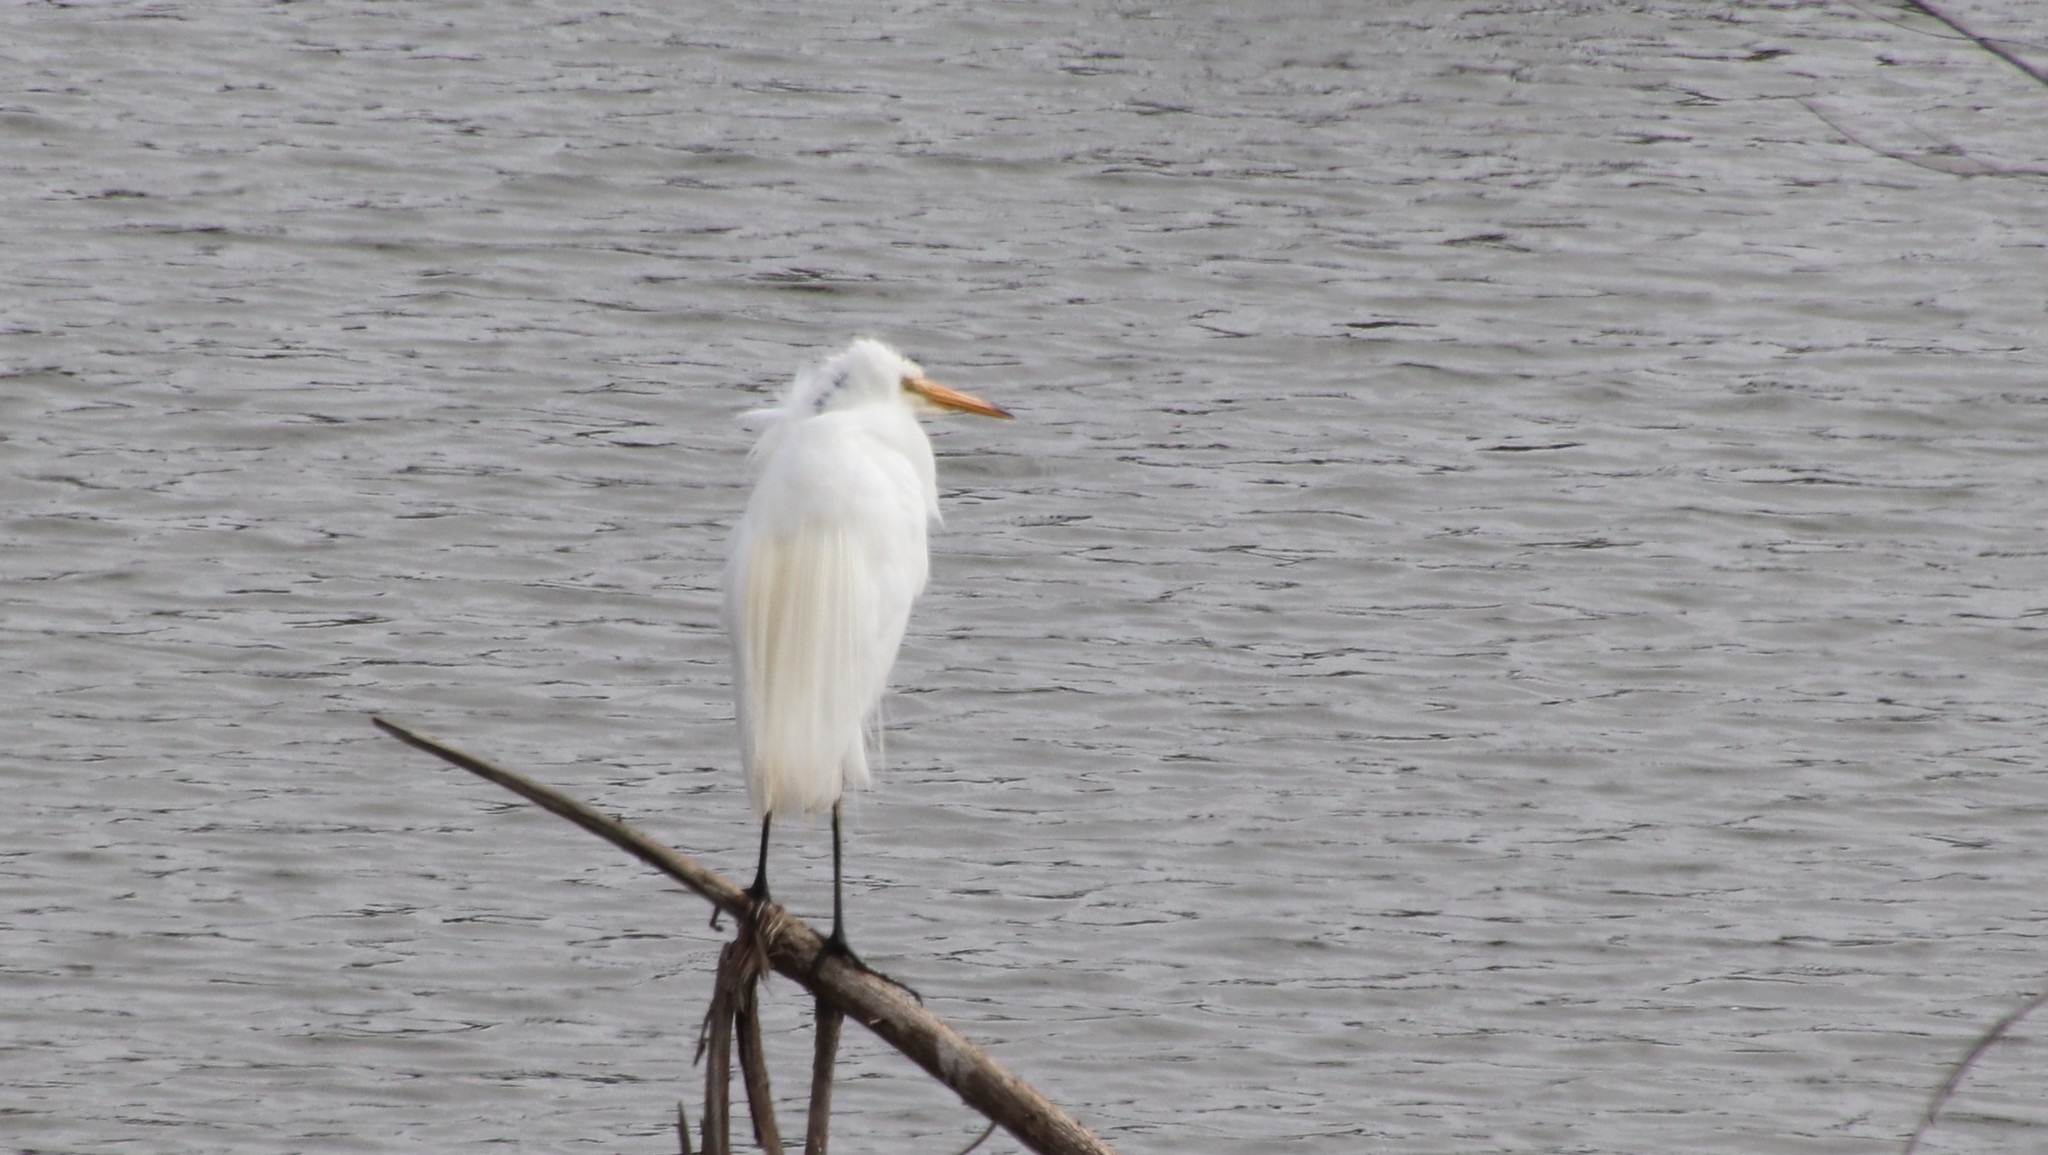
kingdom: Animalia
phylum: Chordata
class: Aves
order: Pelecaniformes
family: Ardeidae
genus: Ardea
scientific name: Ardea alba
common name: Great egret
